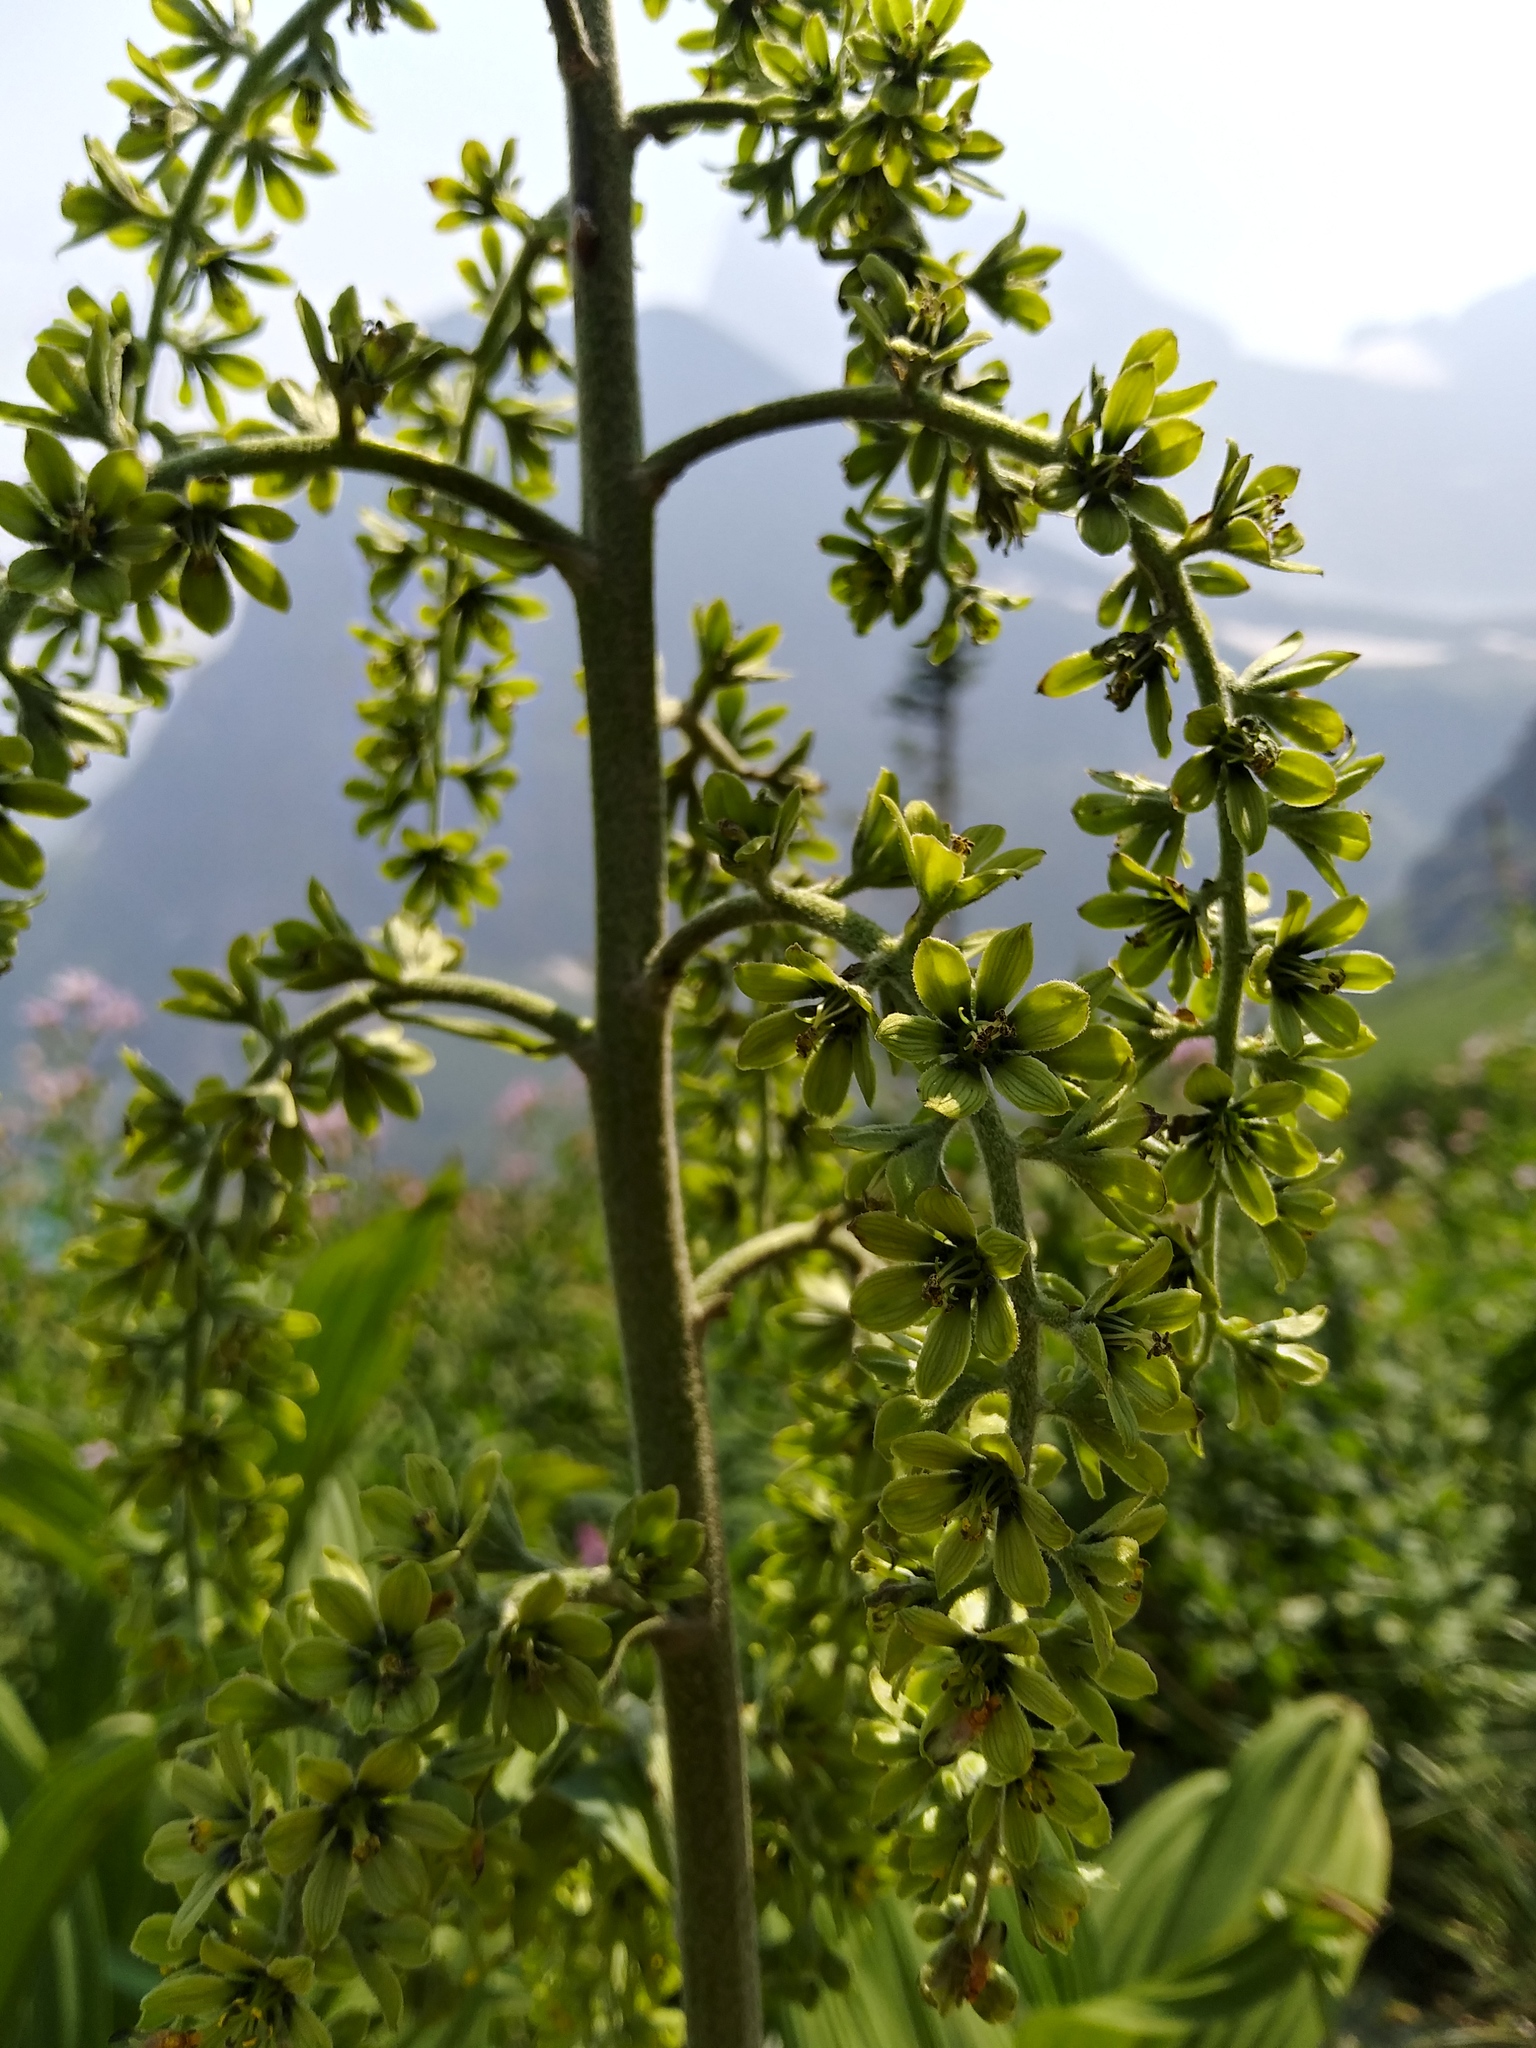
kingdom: Plantae
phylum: Tracheophyta
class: Liliopsida
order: Liliales
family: Melanthiaceae
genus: Veratrum
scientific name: Veratrum viride
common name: American false hellebore
